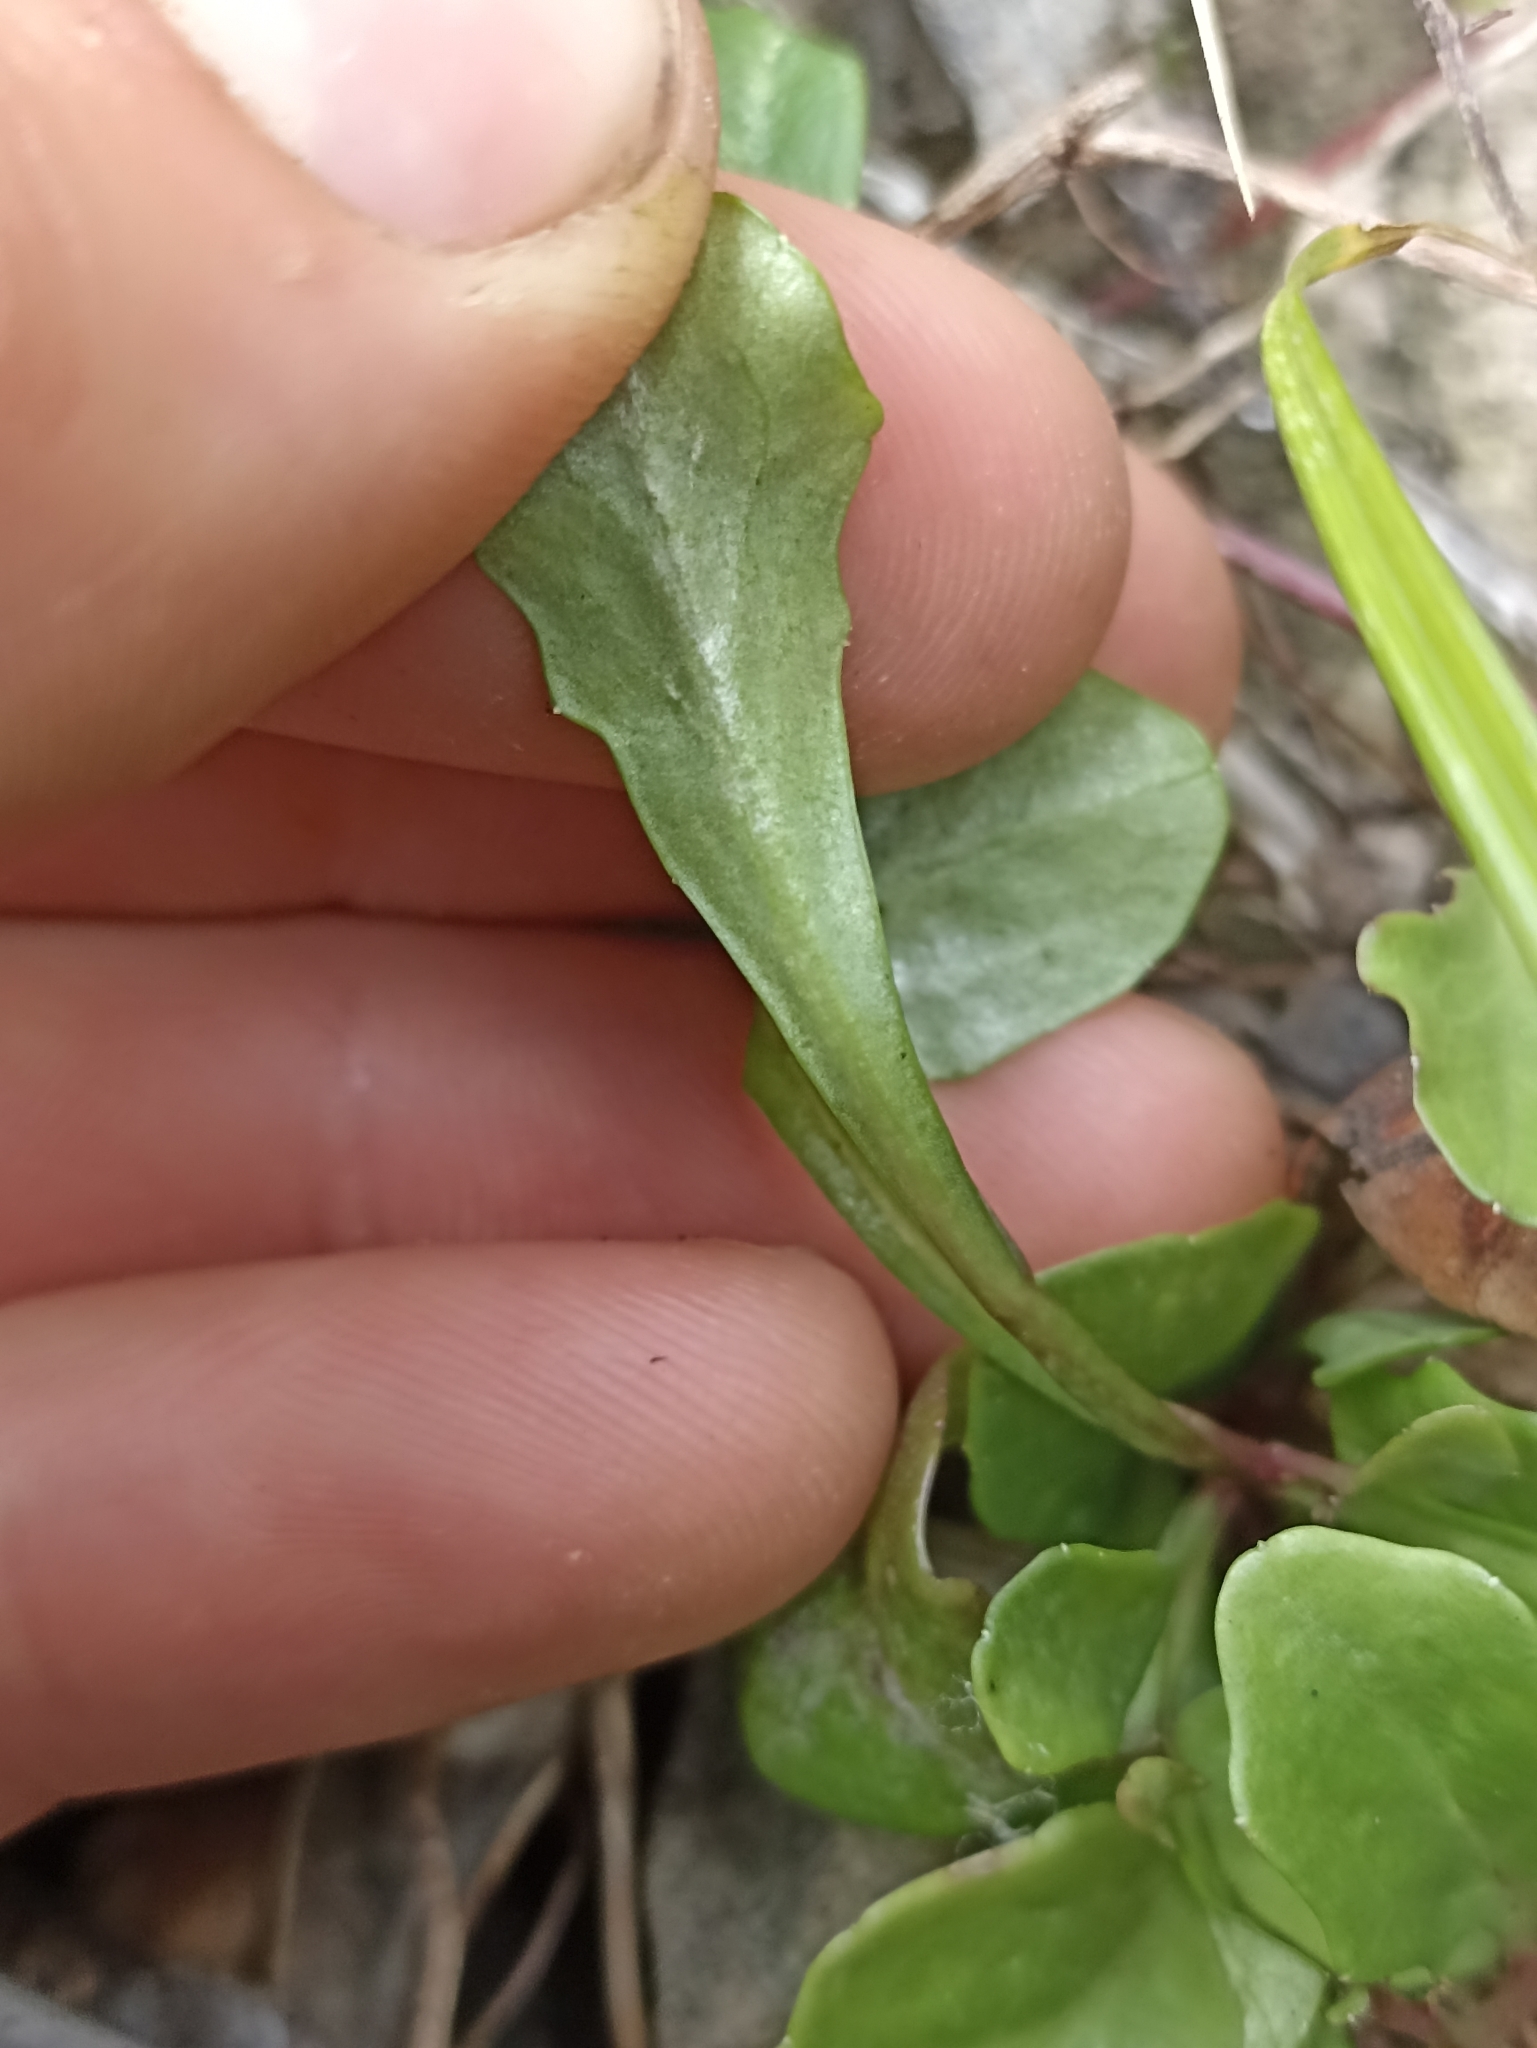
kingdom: Plantae
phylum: Tracheophyta
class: Magnoliopsida
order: Asterales
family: Campanulaceae
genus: Lobelia
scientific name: Lobelia anceps
